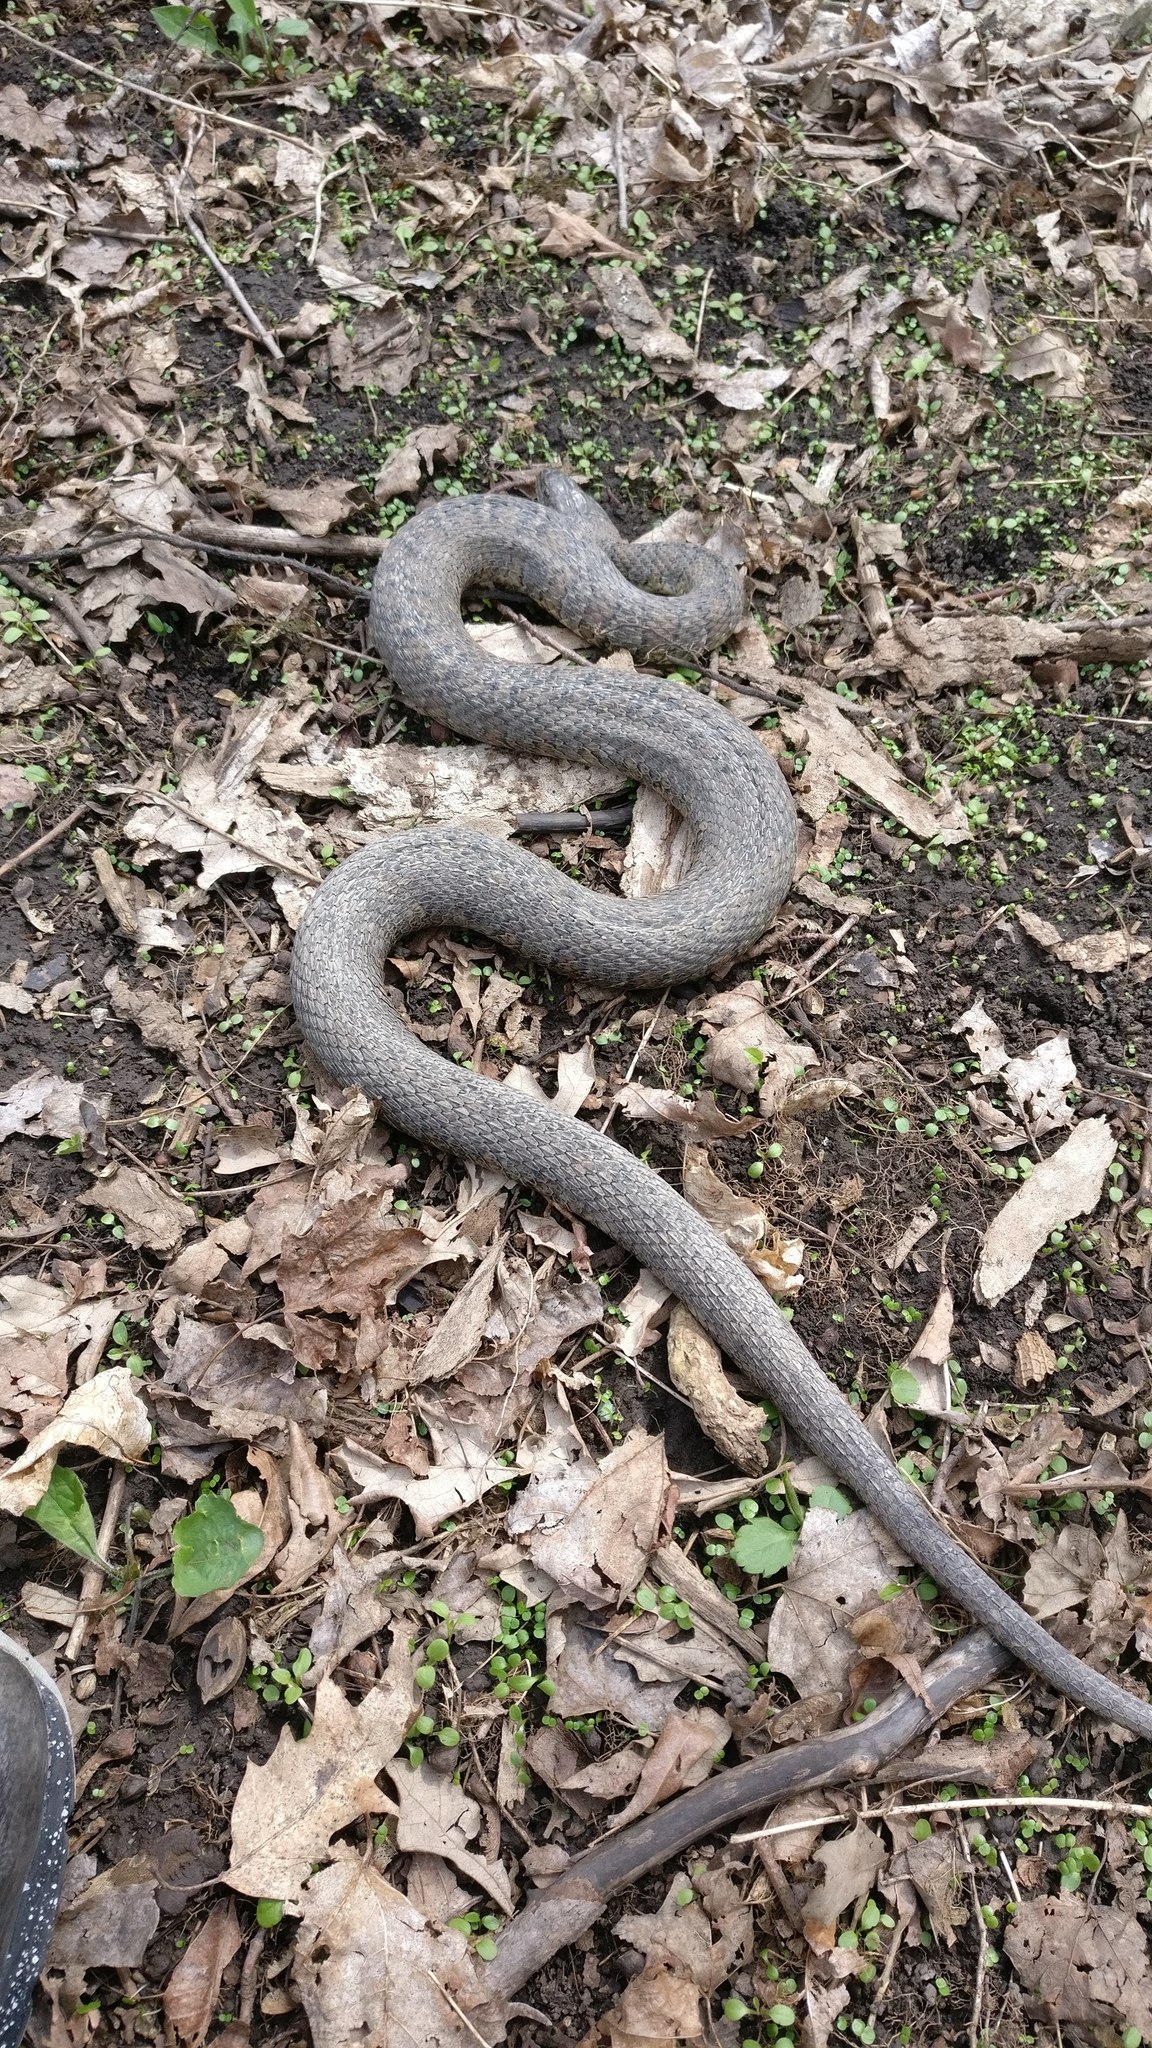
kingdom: Animalia
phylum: Chordata
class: Squamata
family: Colubridae
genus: Nerodia
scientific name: Nerodia sipedon
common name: Northern water snake
